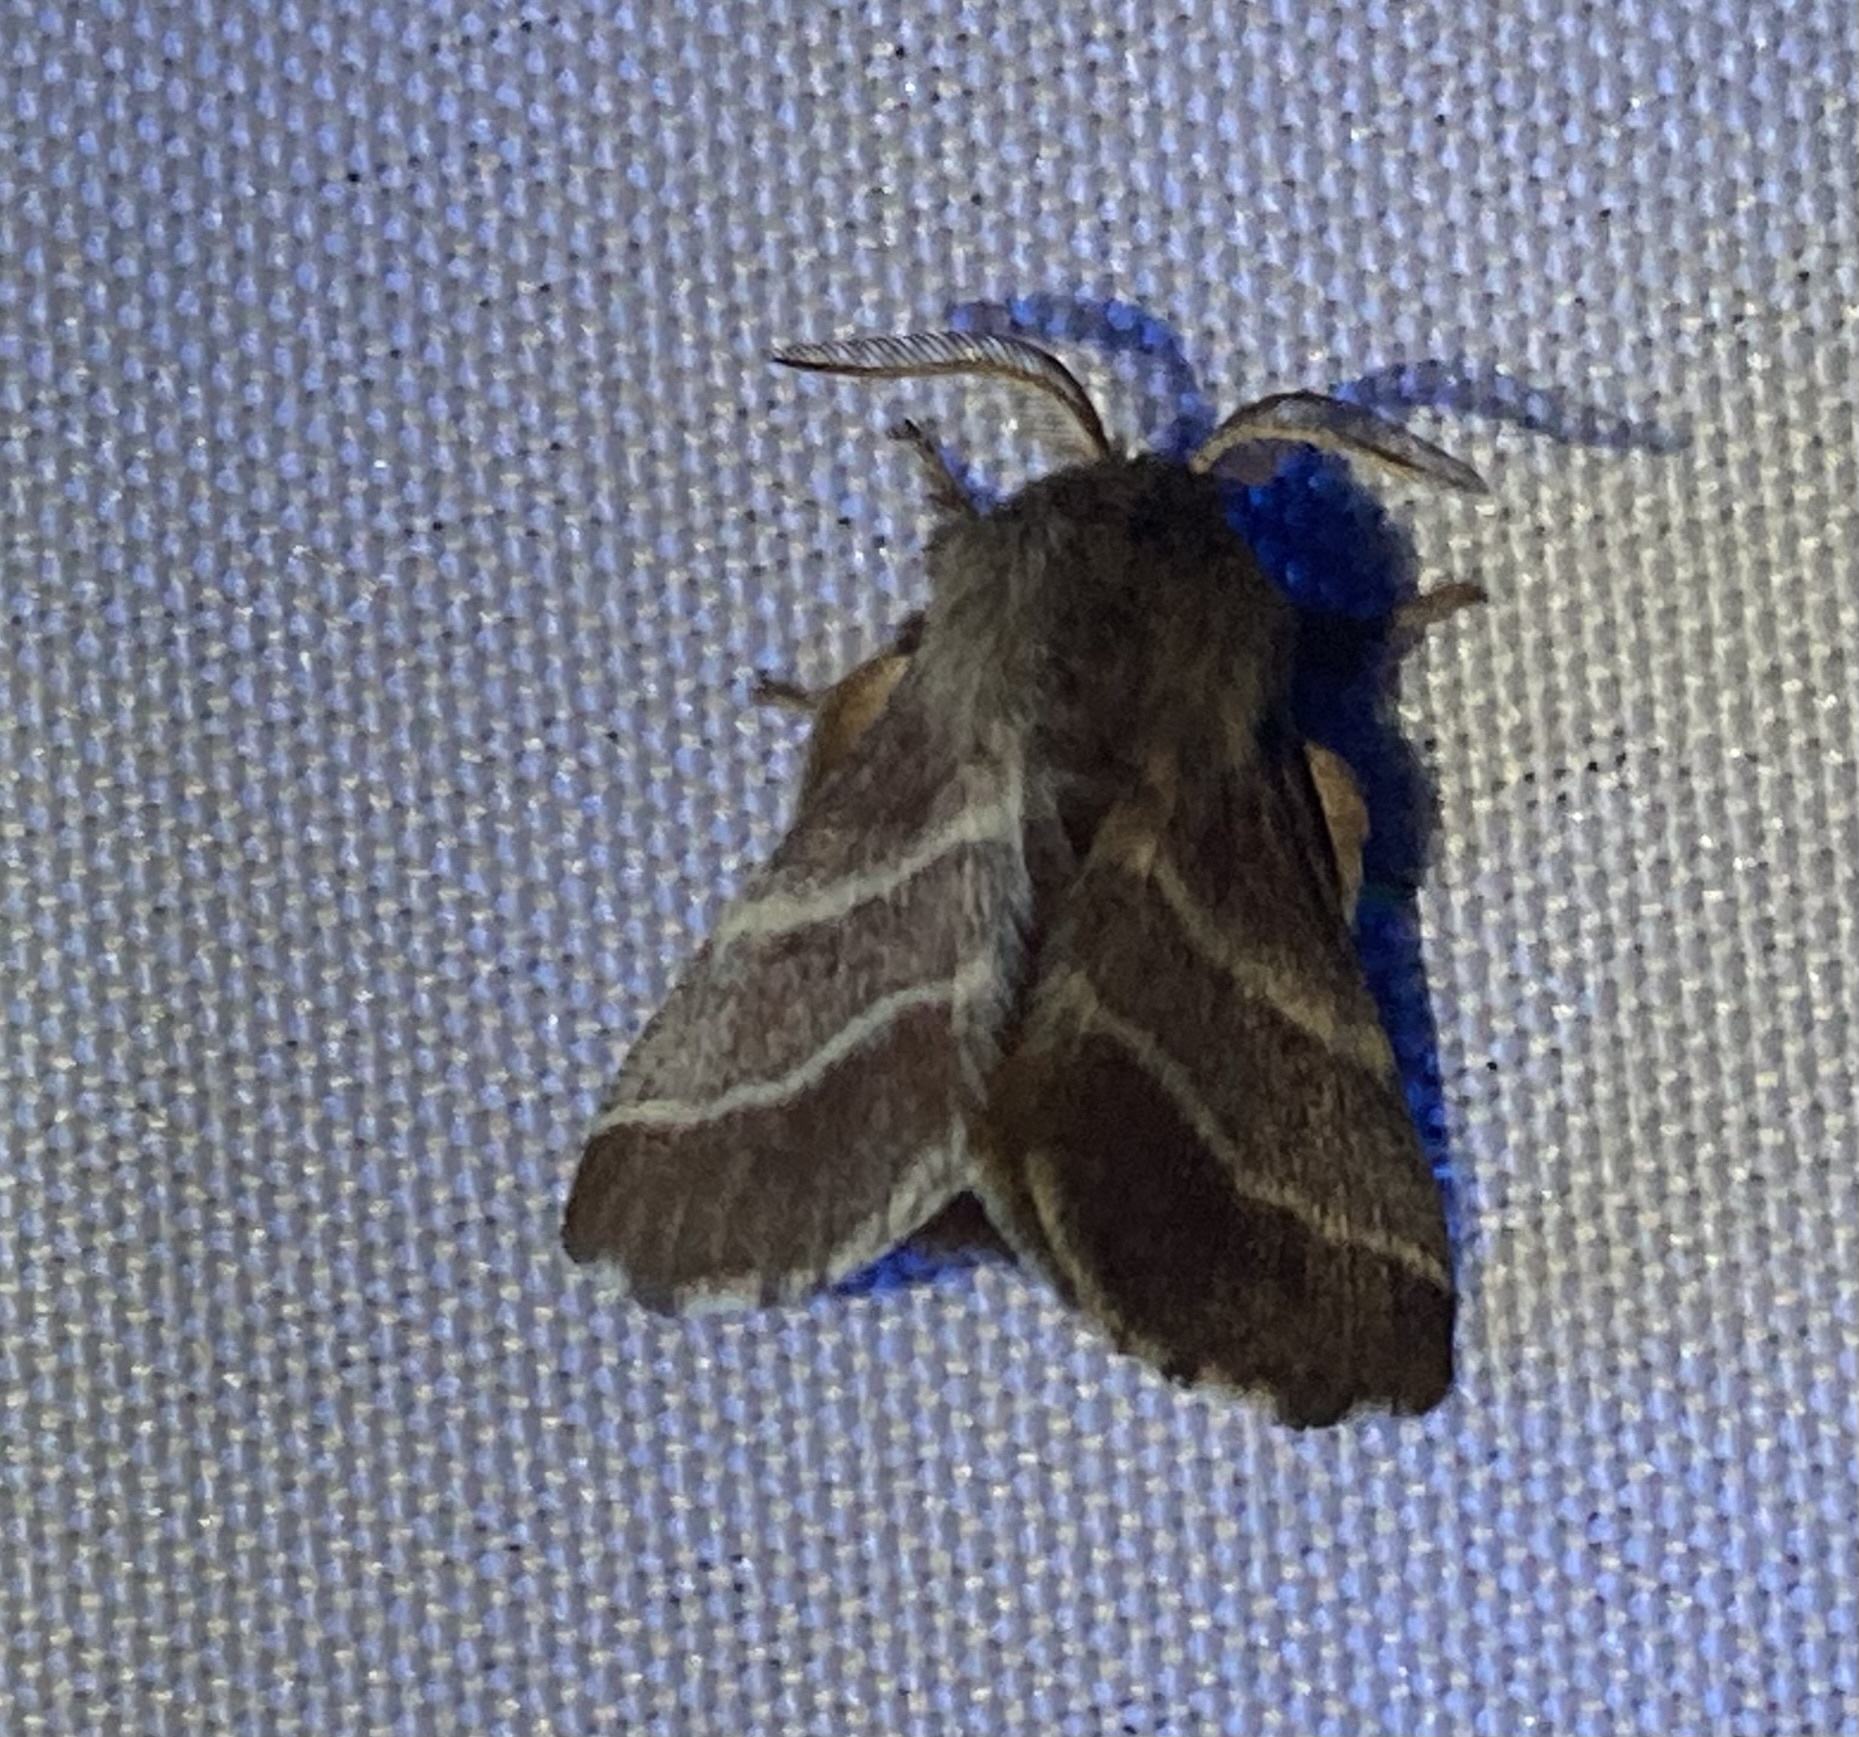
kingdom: Animalia
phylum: Arthropoda
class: Insecta
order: Lepidoptera
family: Lasiocampidae
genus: Malacosoma
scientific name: Malacosoma americana
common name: Eastern tent caterpillar moth
